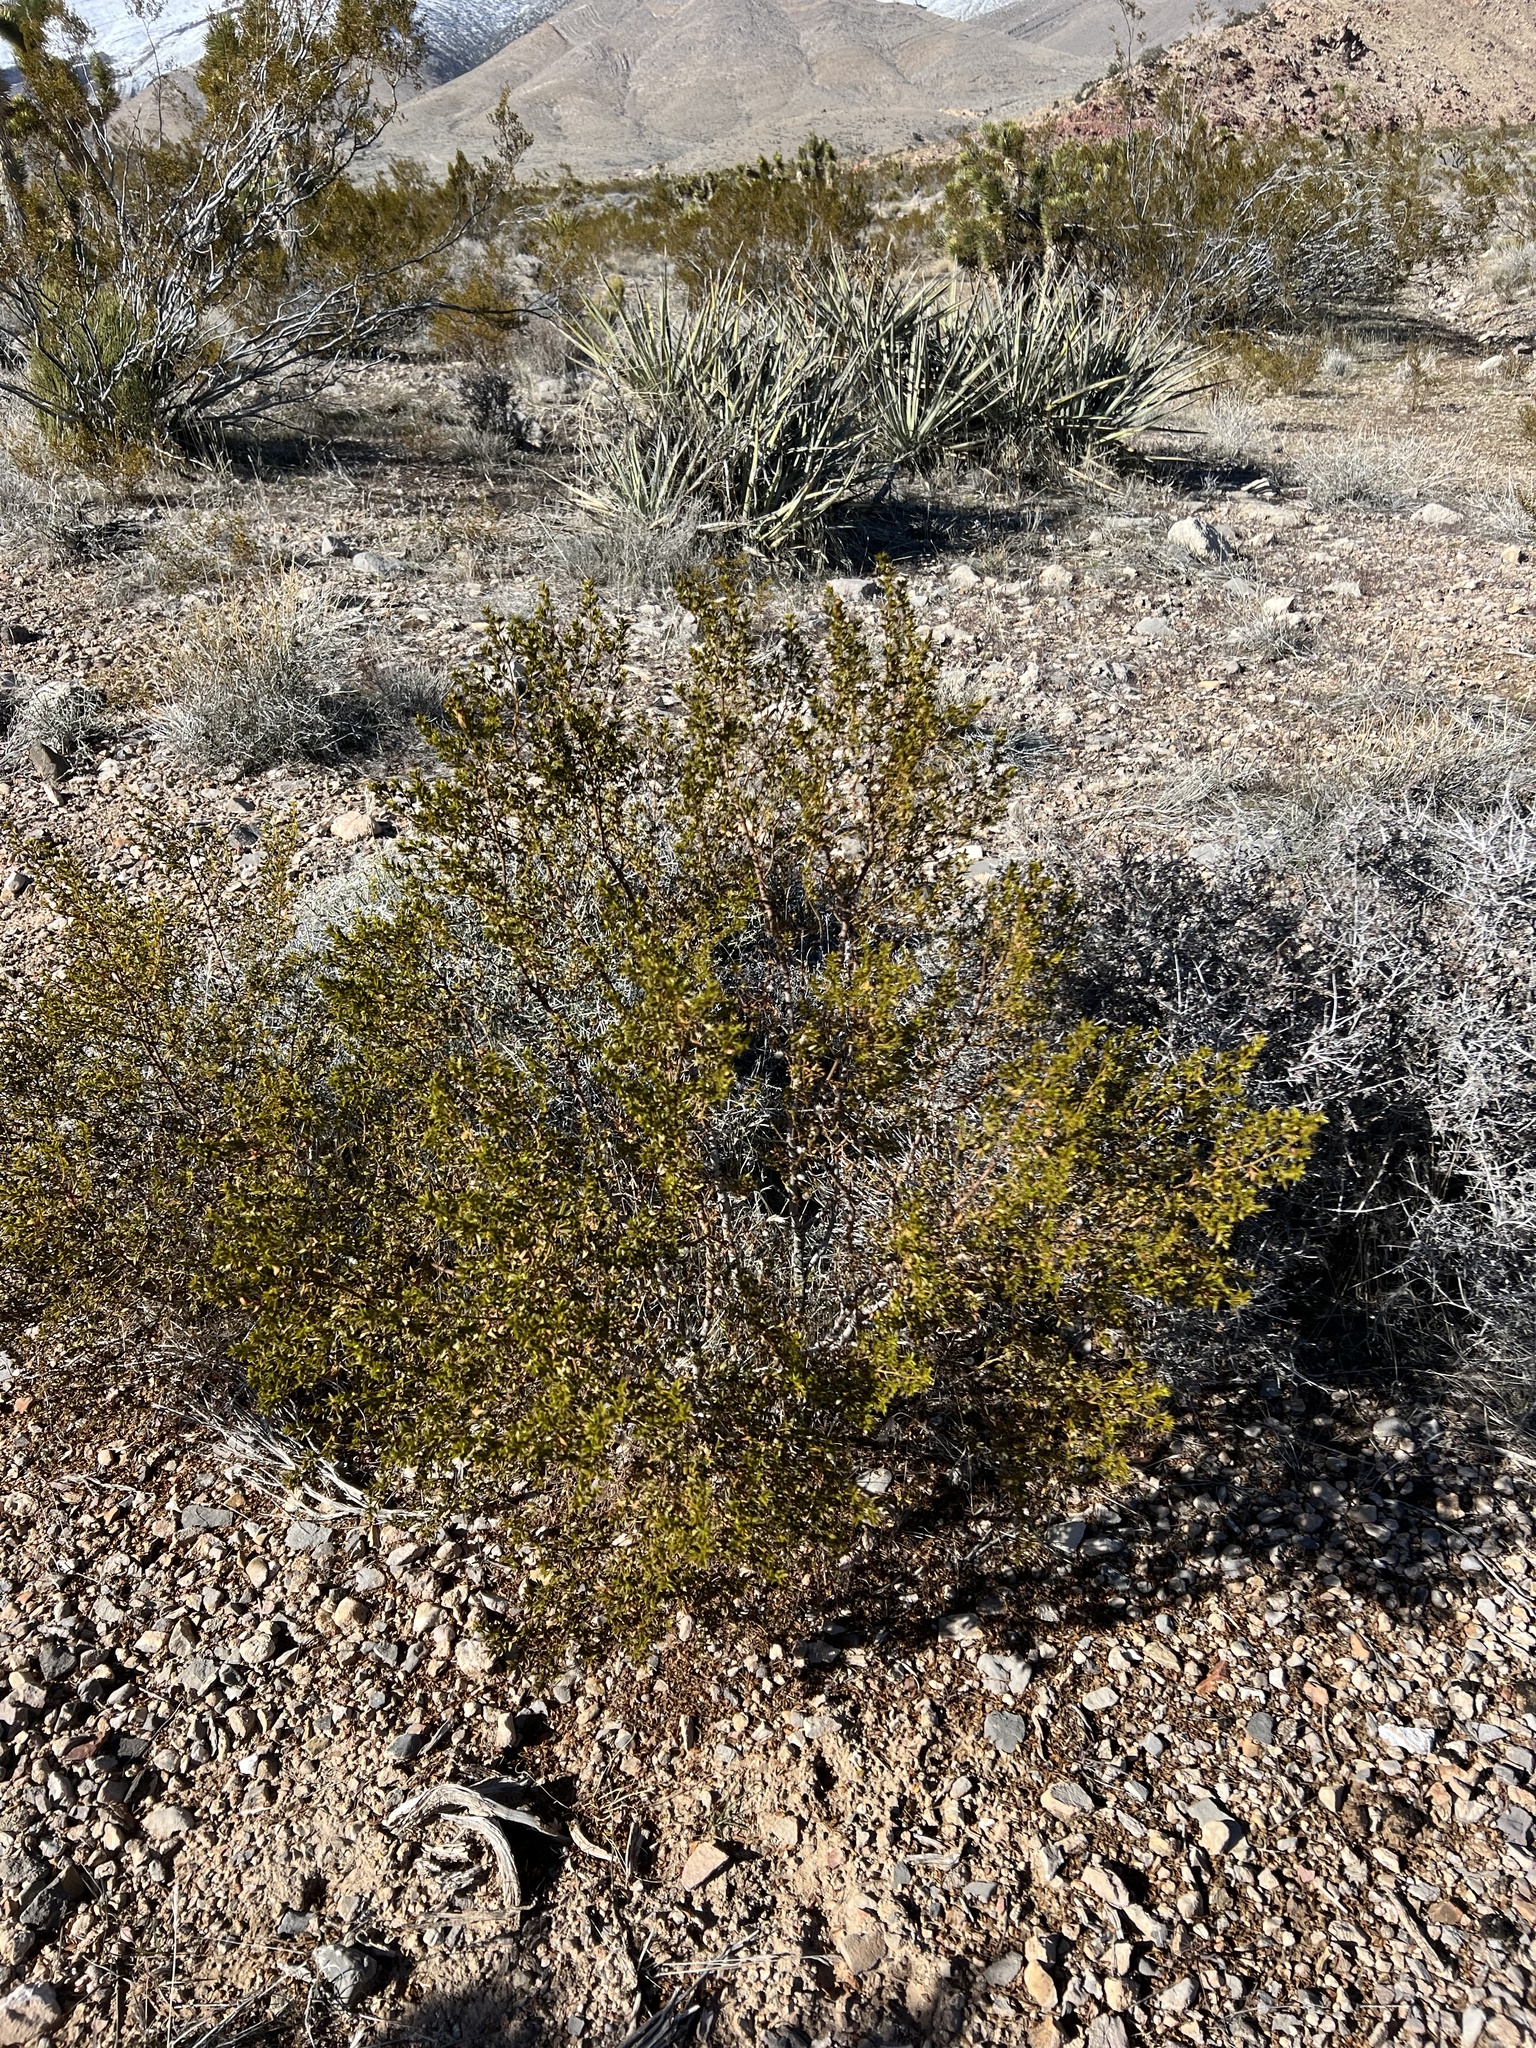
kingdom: Plantae
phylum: Tracheophyta
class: Magnoliopsida
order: Zygophyllales
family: Zygophyllaceae
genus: Larrea
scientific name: Larrea tridentata
